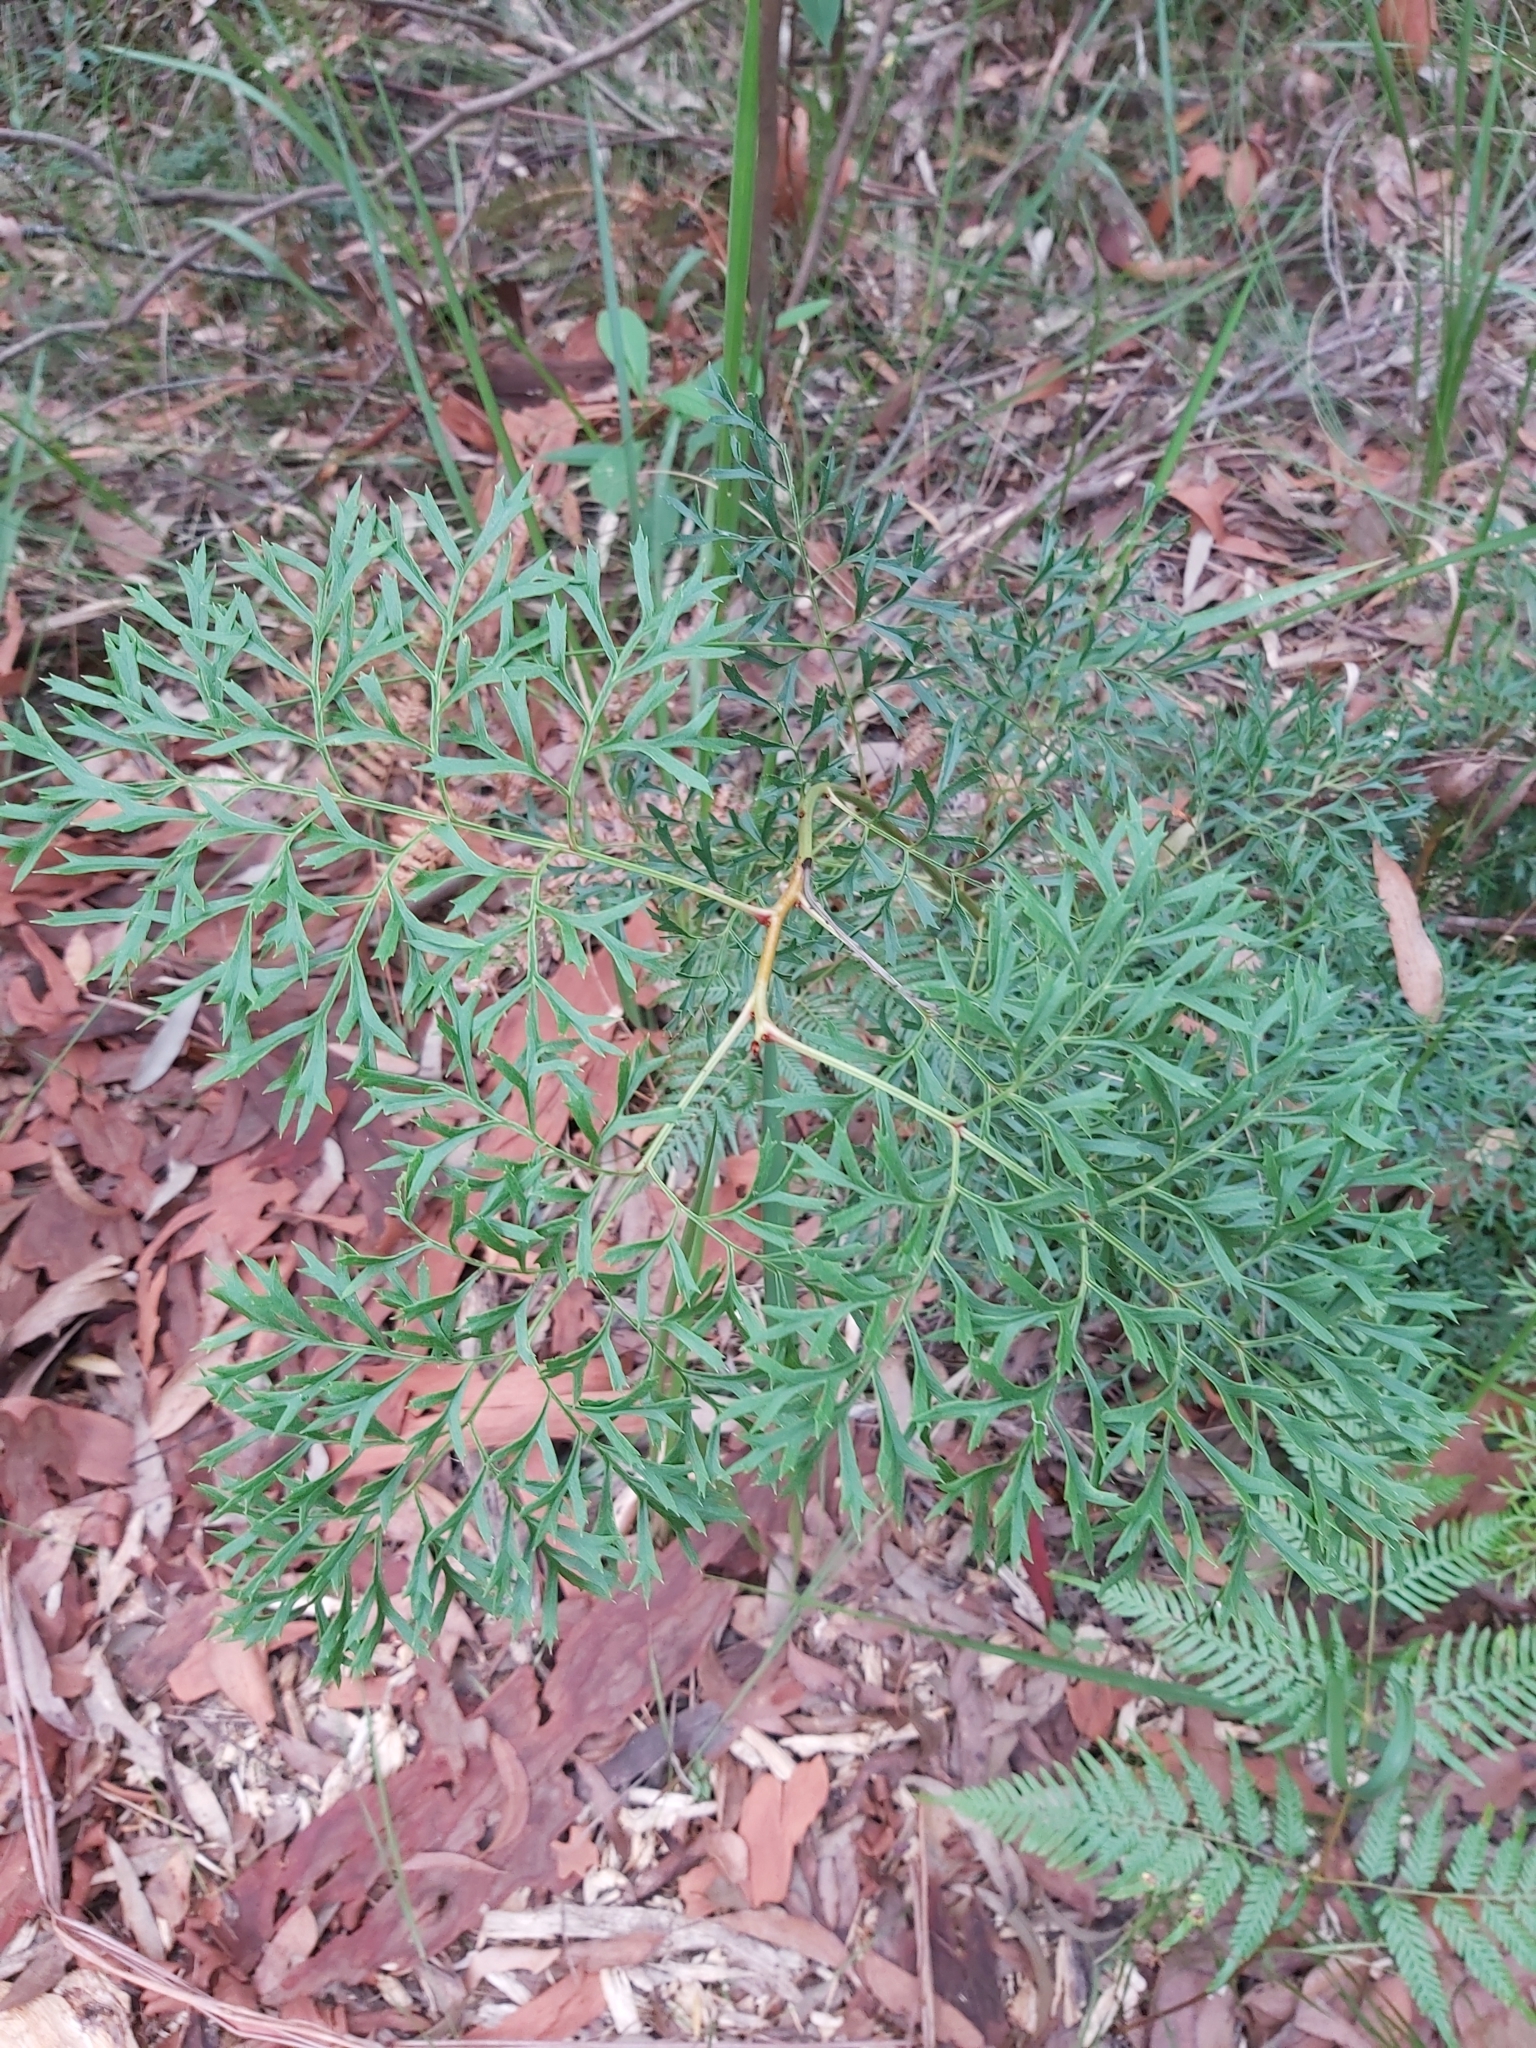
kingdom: Plantae
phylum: Tracheophyta
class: Magnoliopsida
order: Proteales
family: Proteaceae
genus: Lomatia
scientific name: Lomatia silaifolia
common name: Crinklebush
